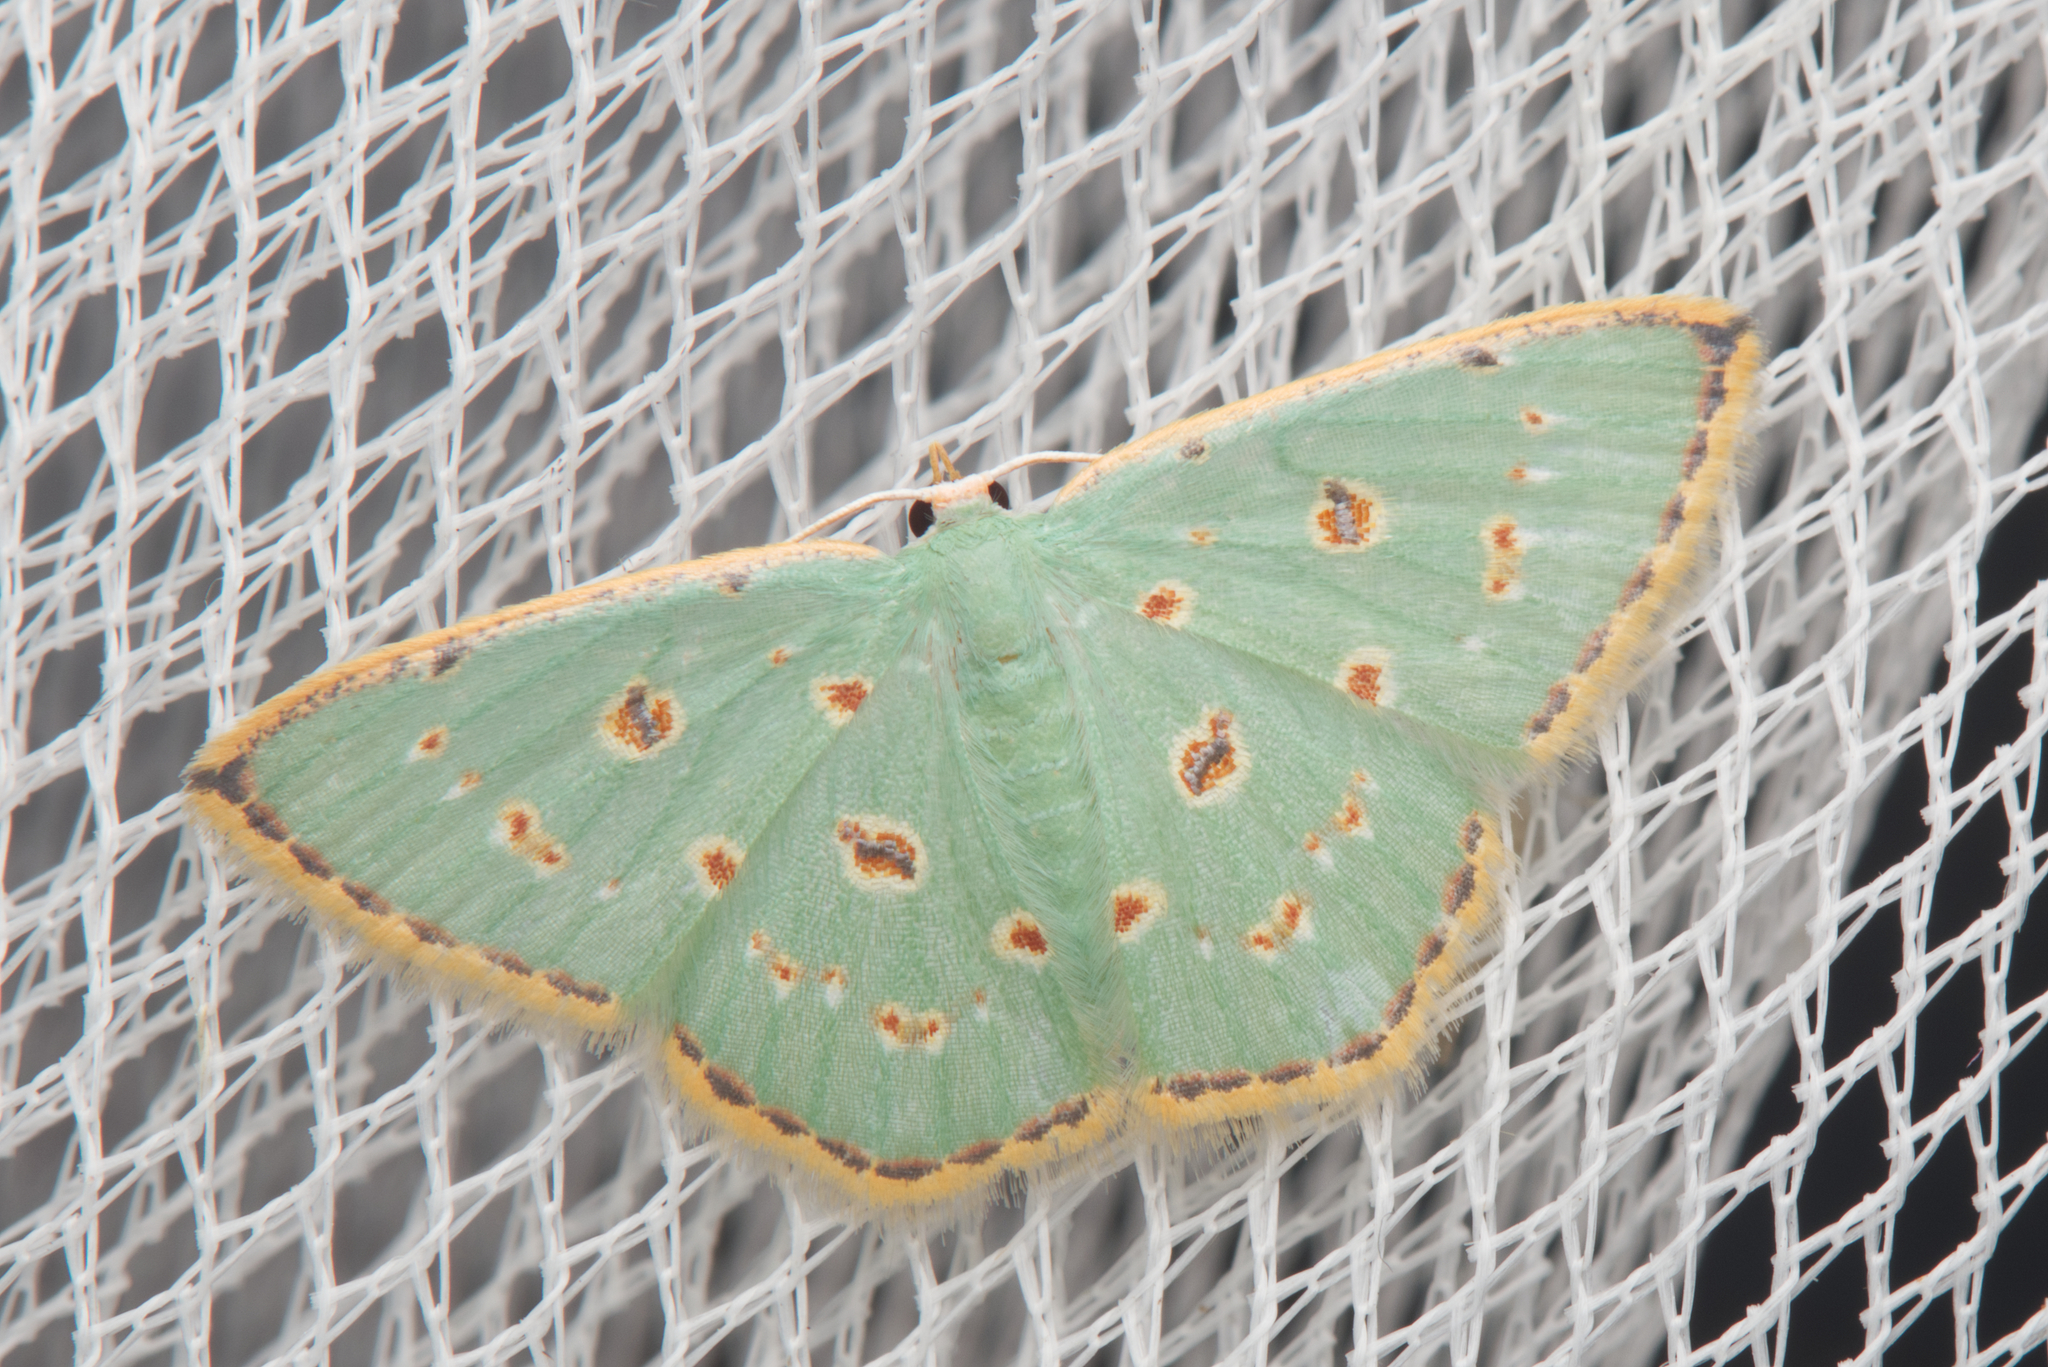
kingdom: Animalia
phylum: Arthropoda
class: Insecta
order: Lepidoptera
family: Geometridae
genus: Comostola
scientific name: Comostola laesaria
